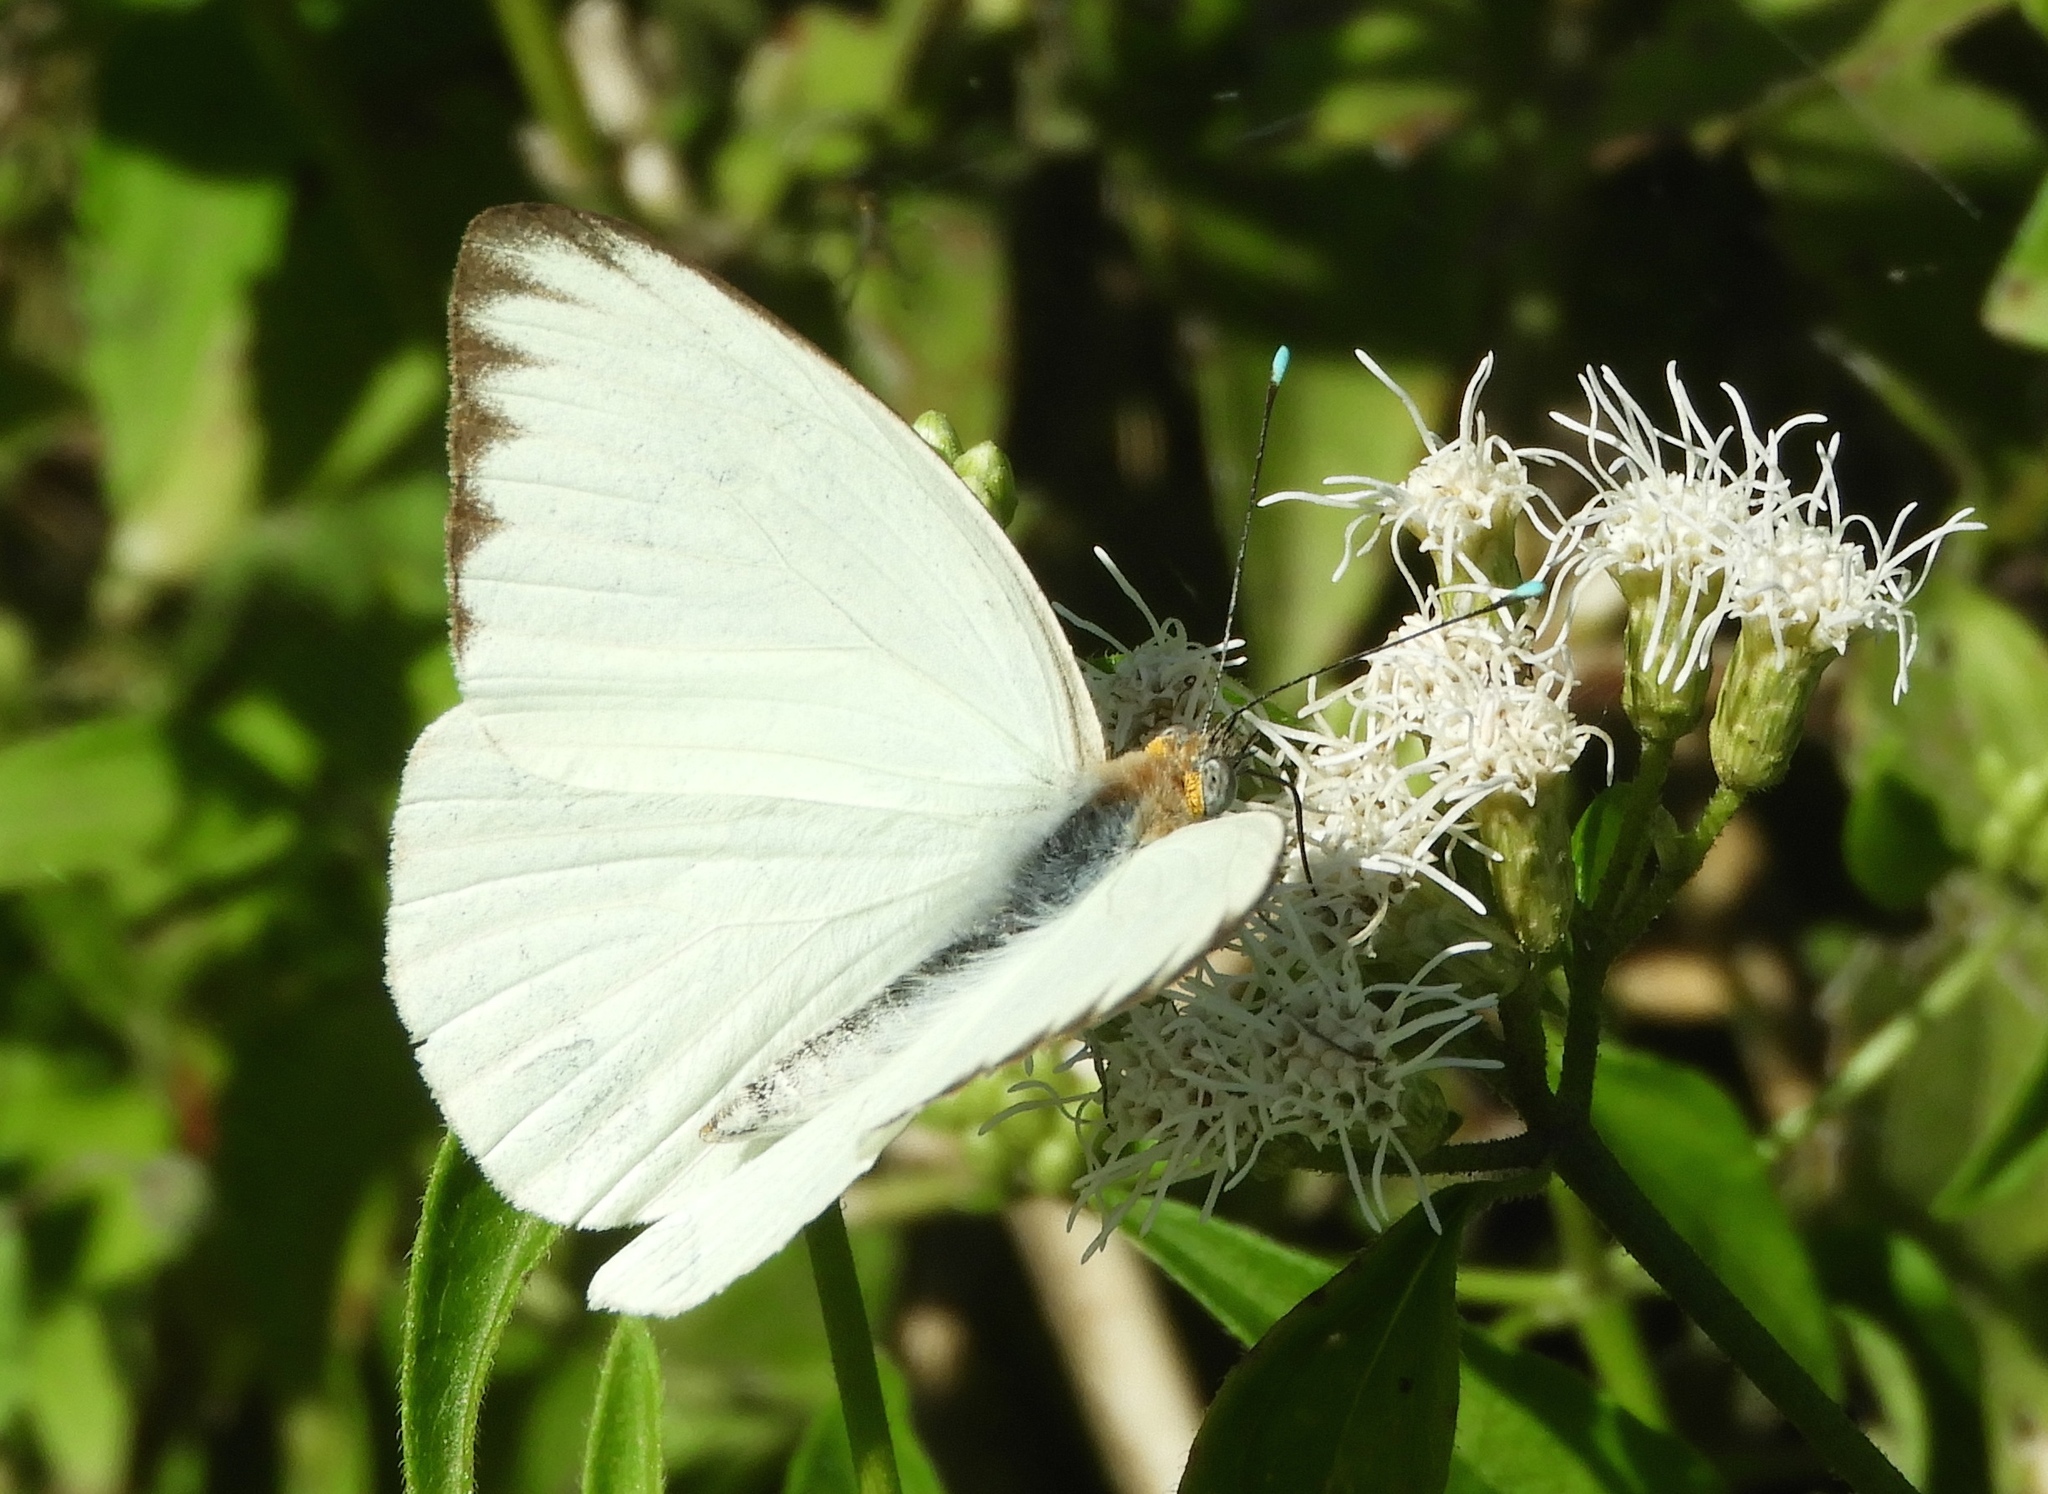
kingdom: Animalia
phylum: Arthropoda
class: Insecta
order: Lepidoptera
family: Pieridae
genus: Ascia
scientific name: Ascia monuste
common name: Great southern white
